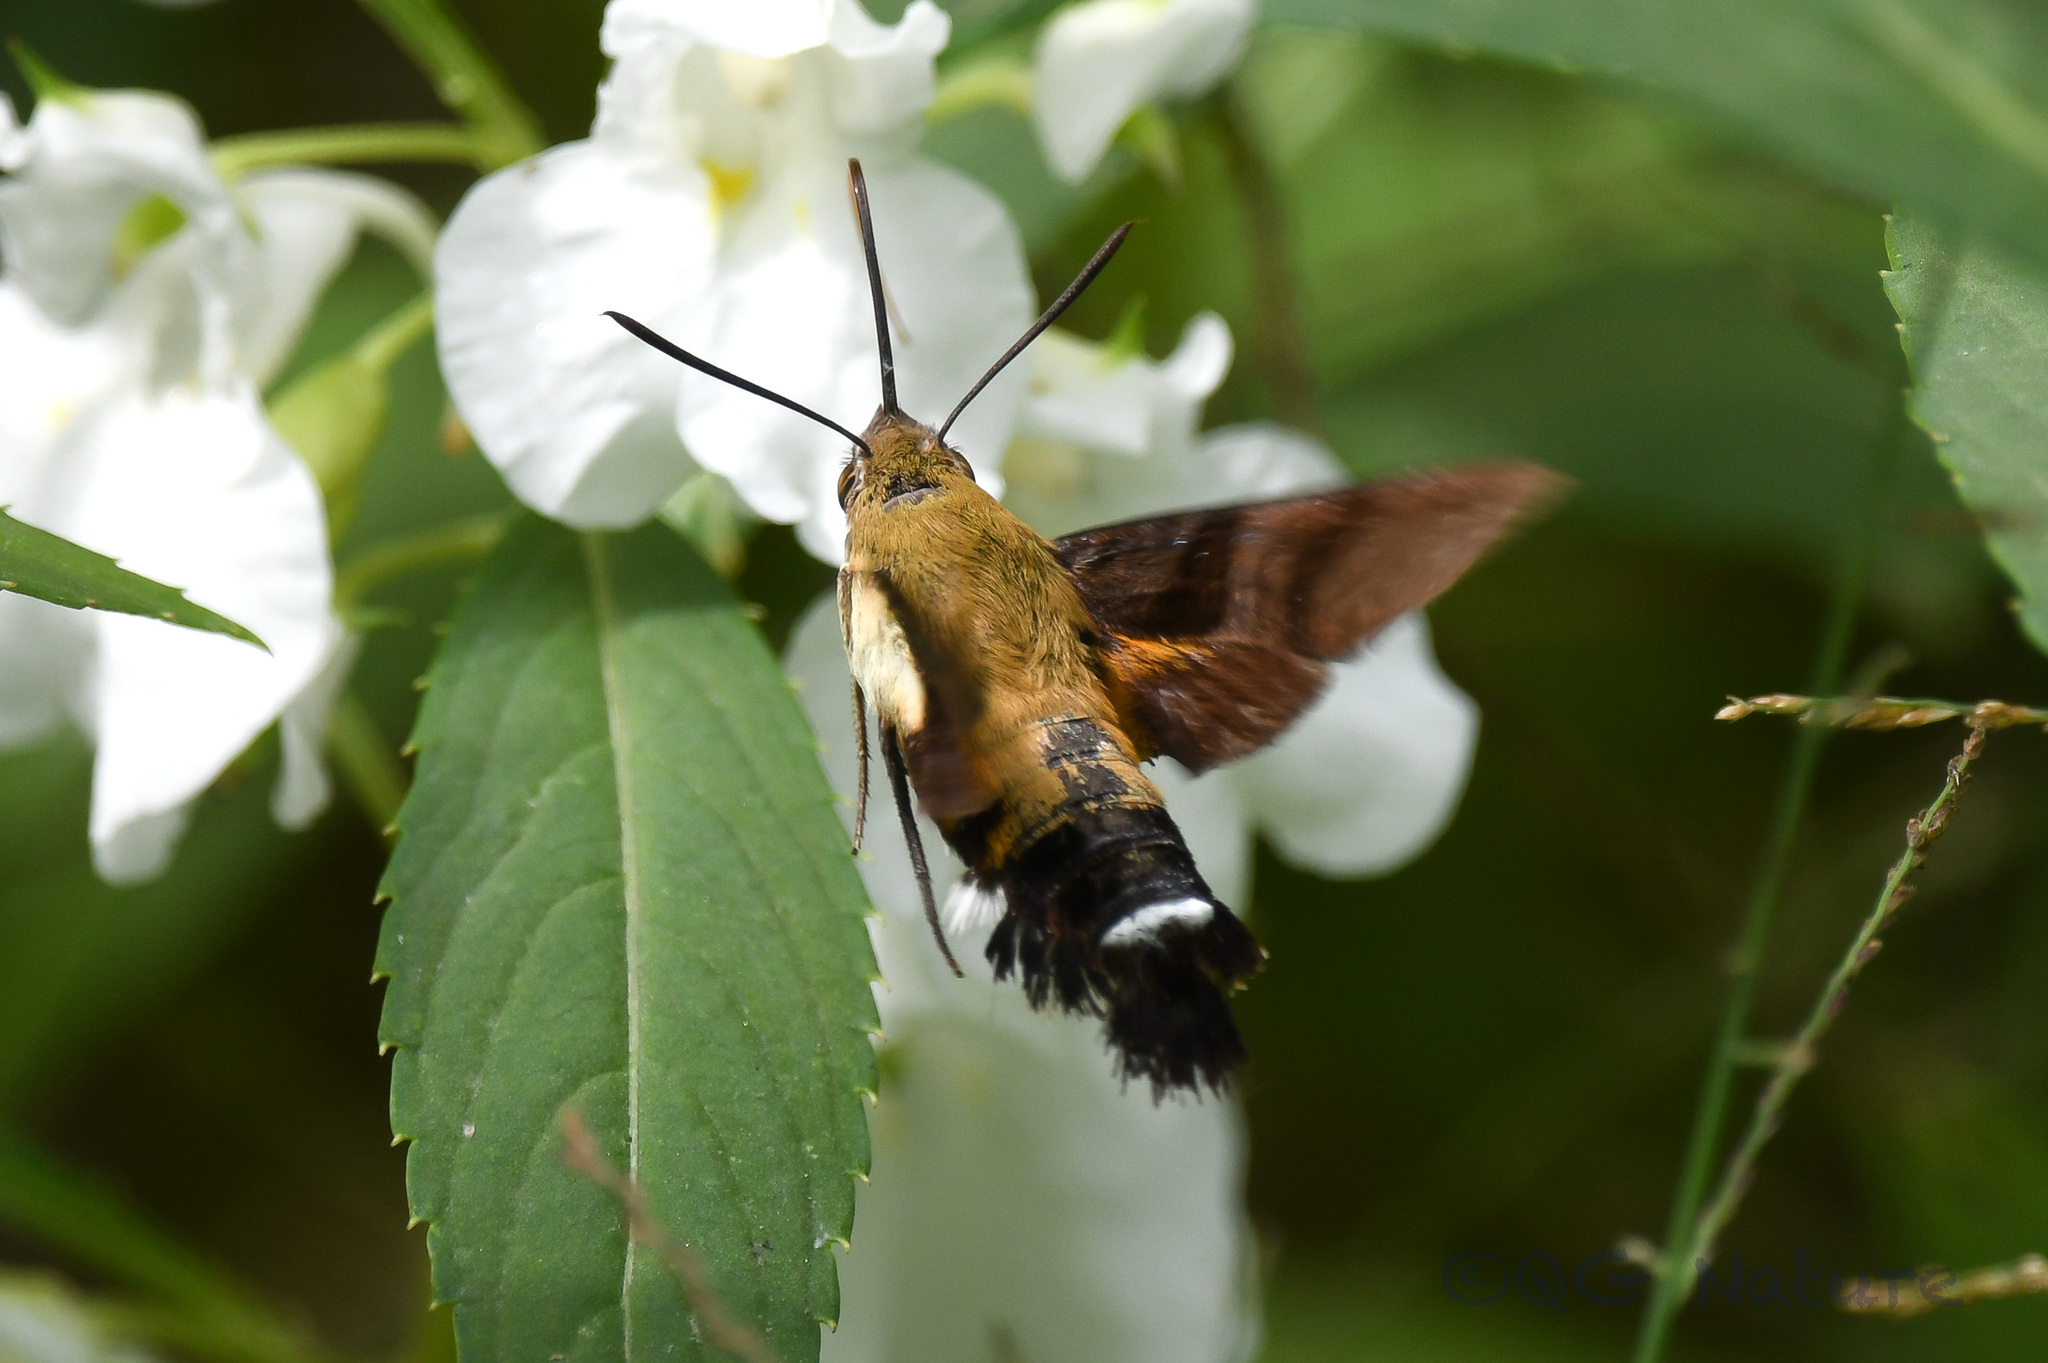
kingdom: Animalia
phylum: Arthropoda
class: Insecta
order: Lepidoptera
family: Sphingidae
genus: Macroglossum
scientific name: Macroglossum bombylans
